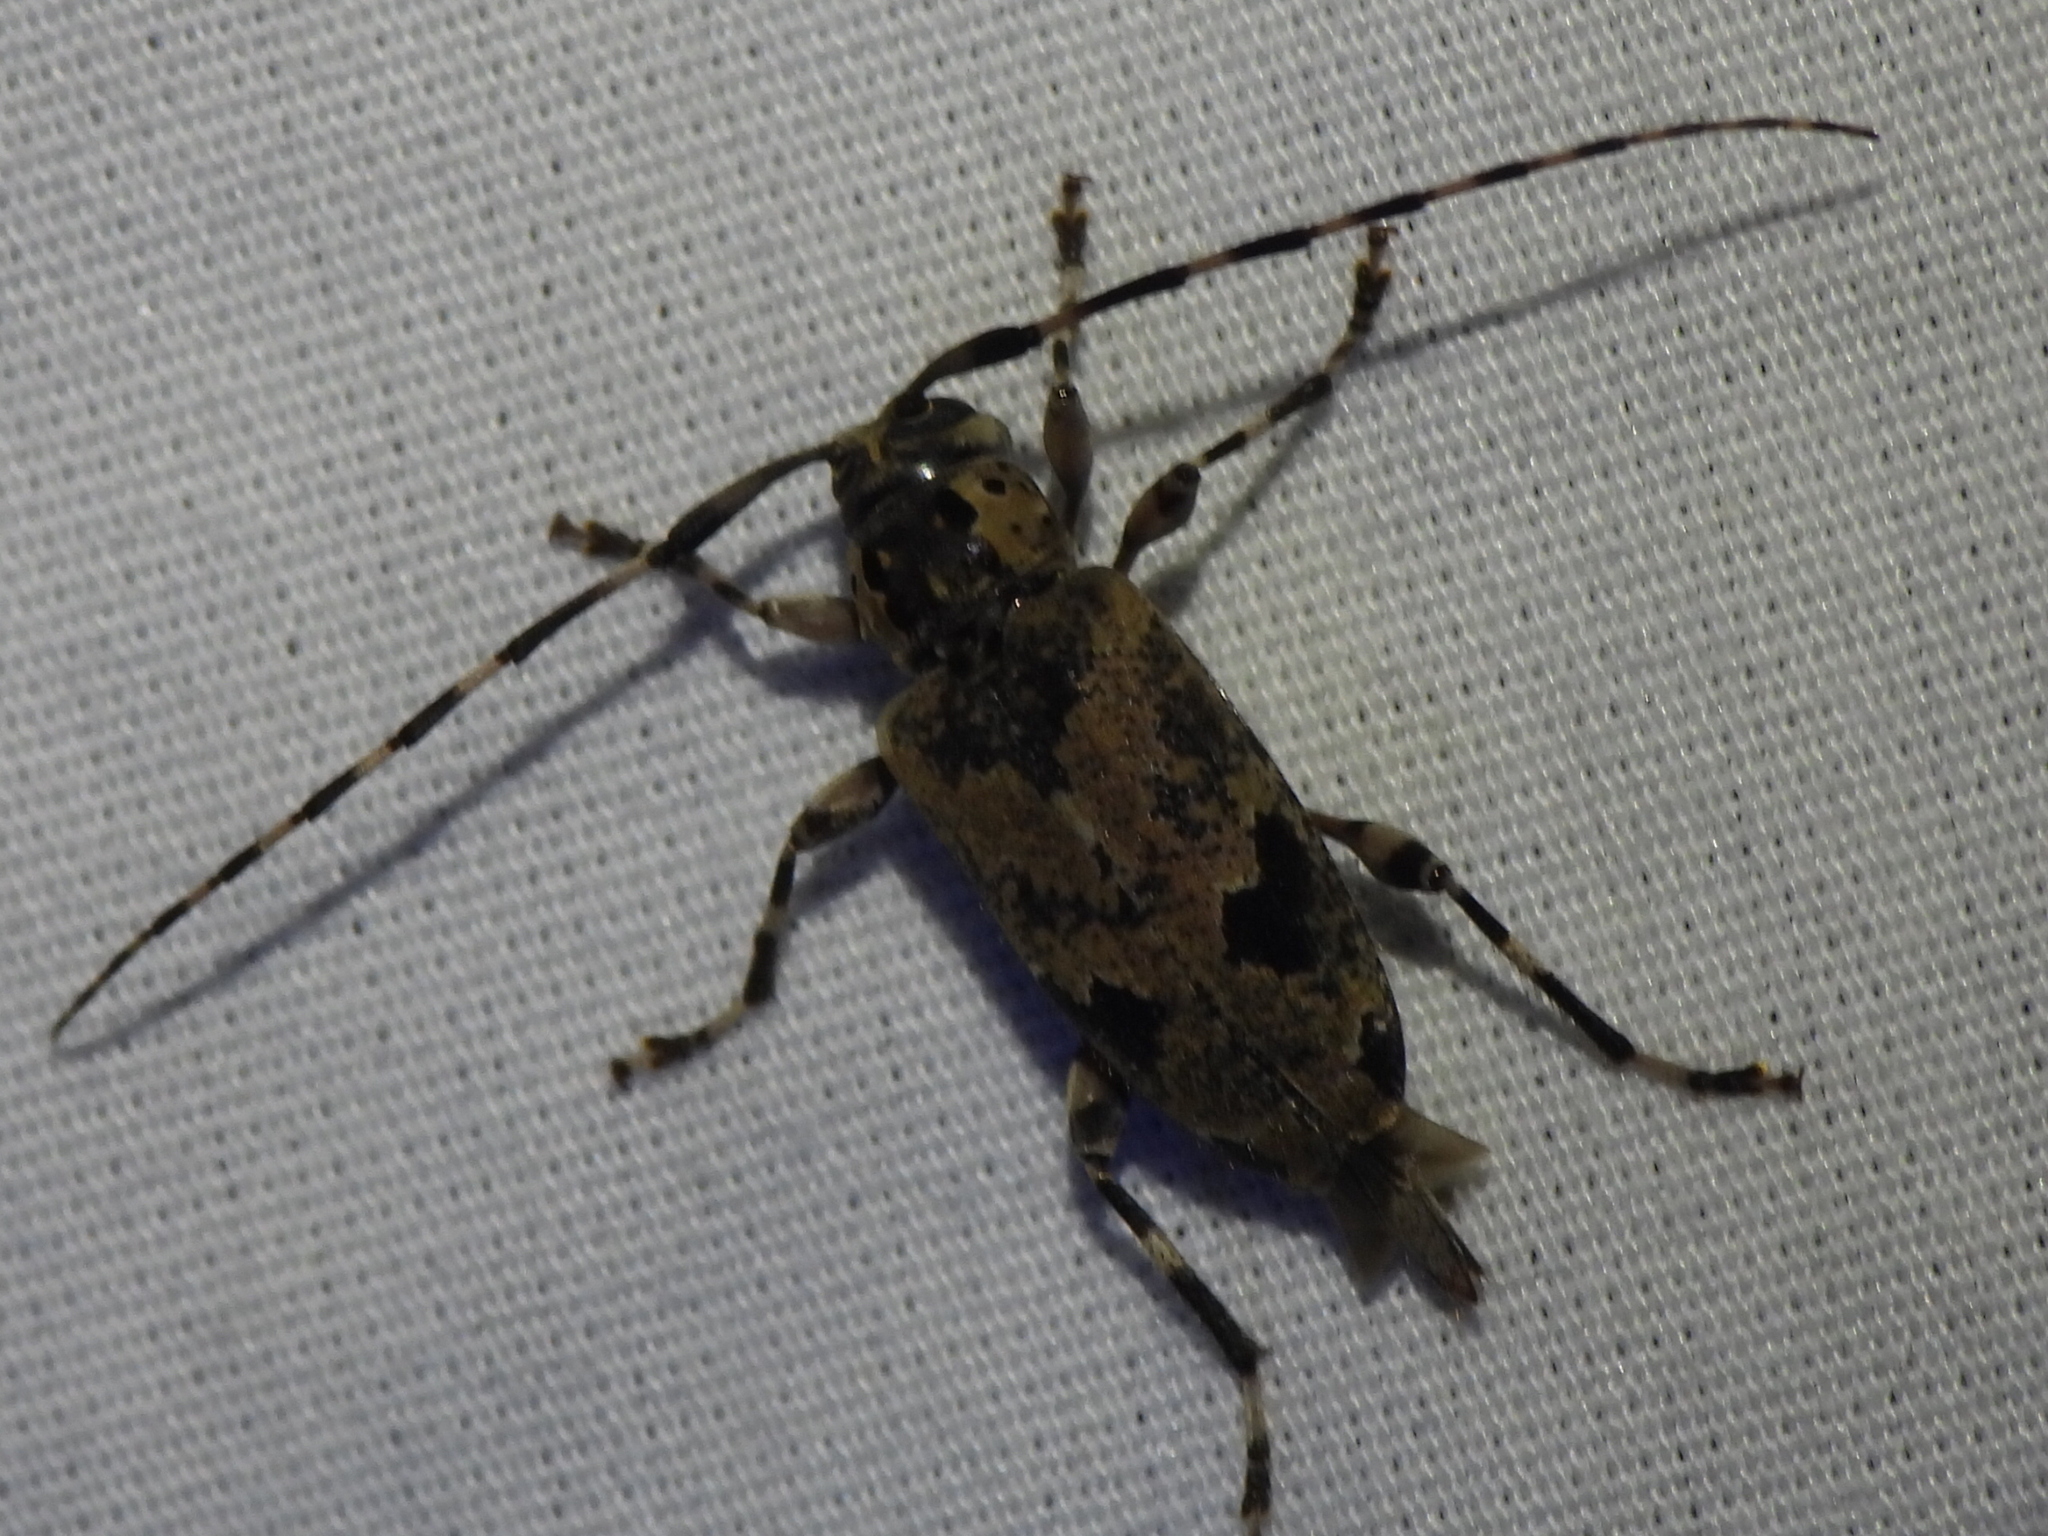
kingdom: Animalia
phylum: Arthropoda
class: Insecta
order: Coleoptera
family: Cerambycidae
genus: Graphisurus
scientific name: Graphisurus triangulifer
